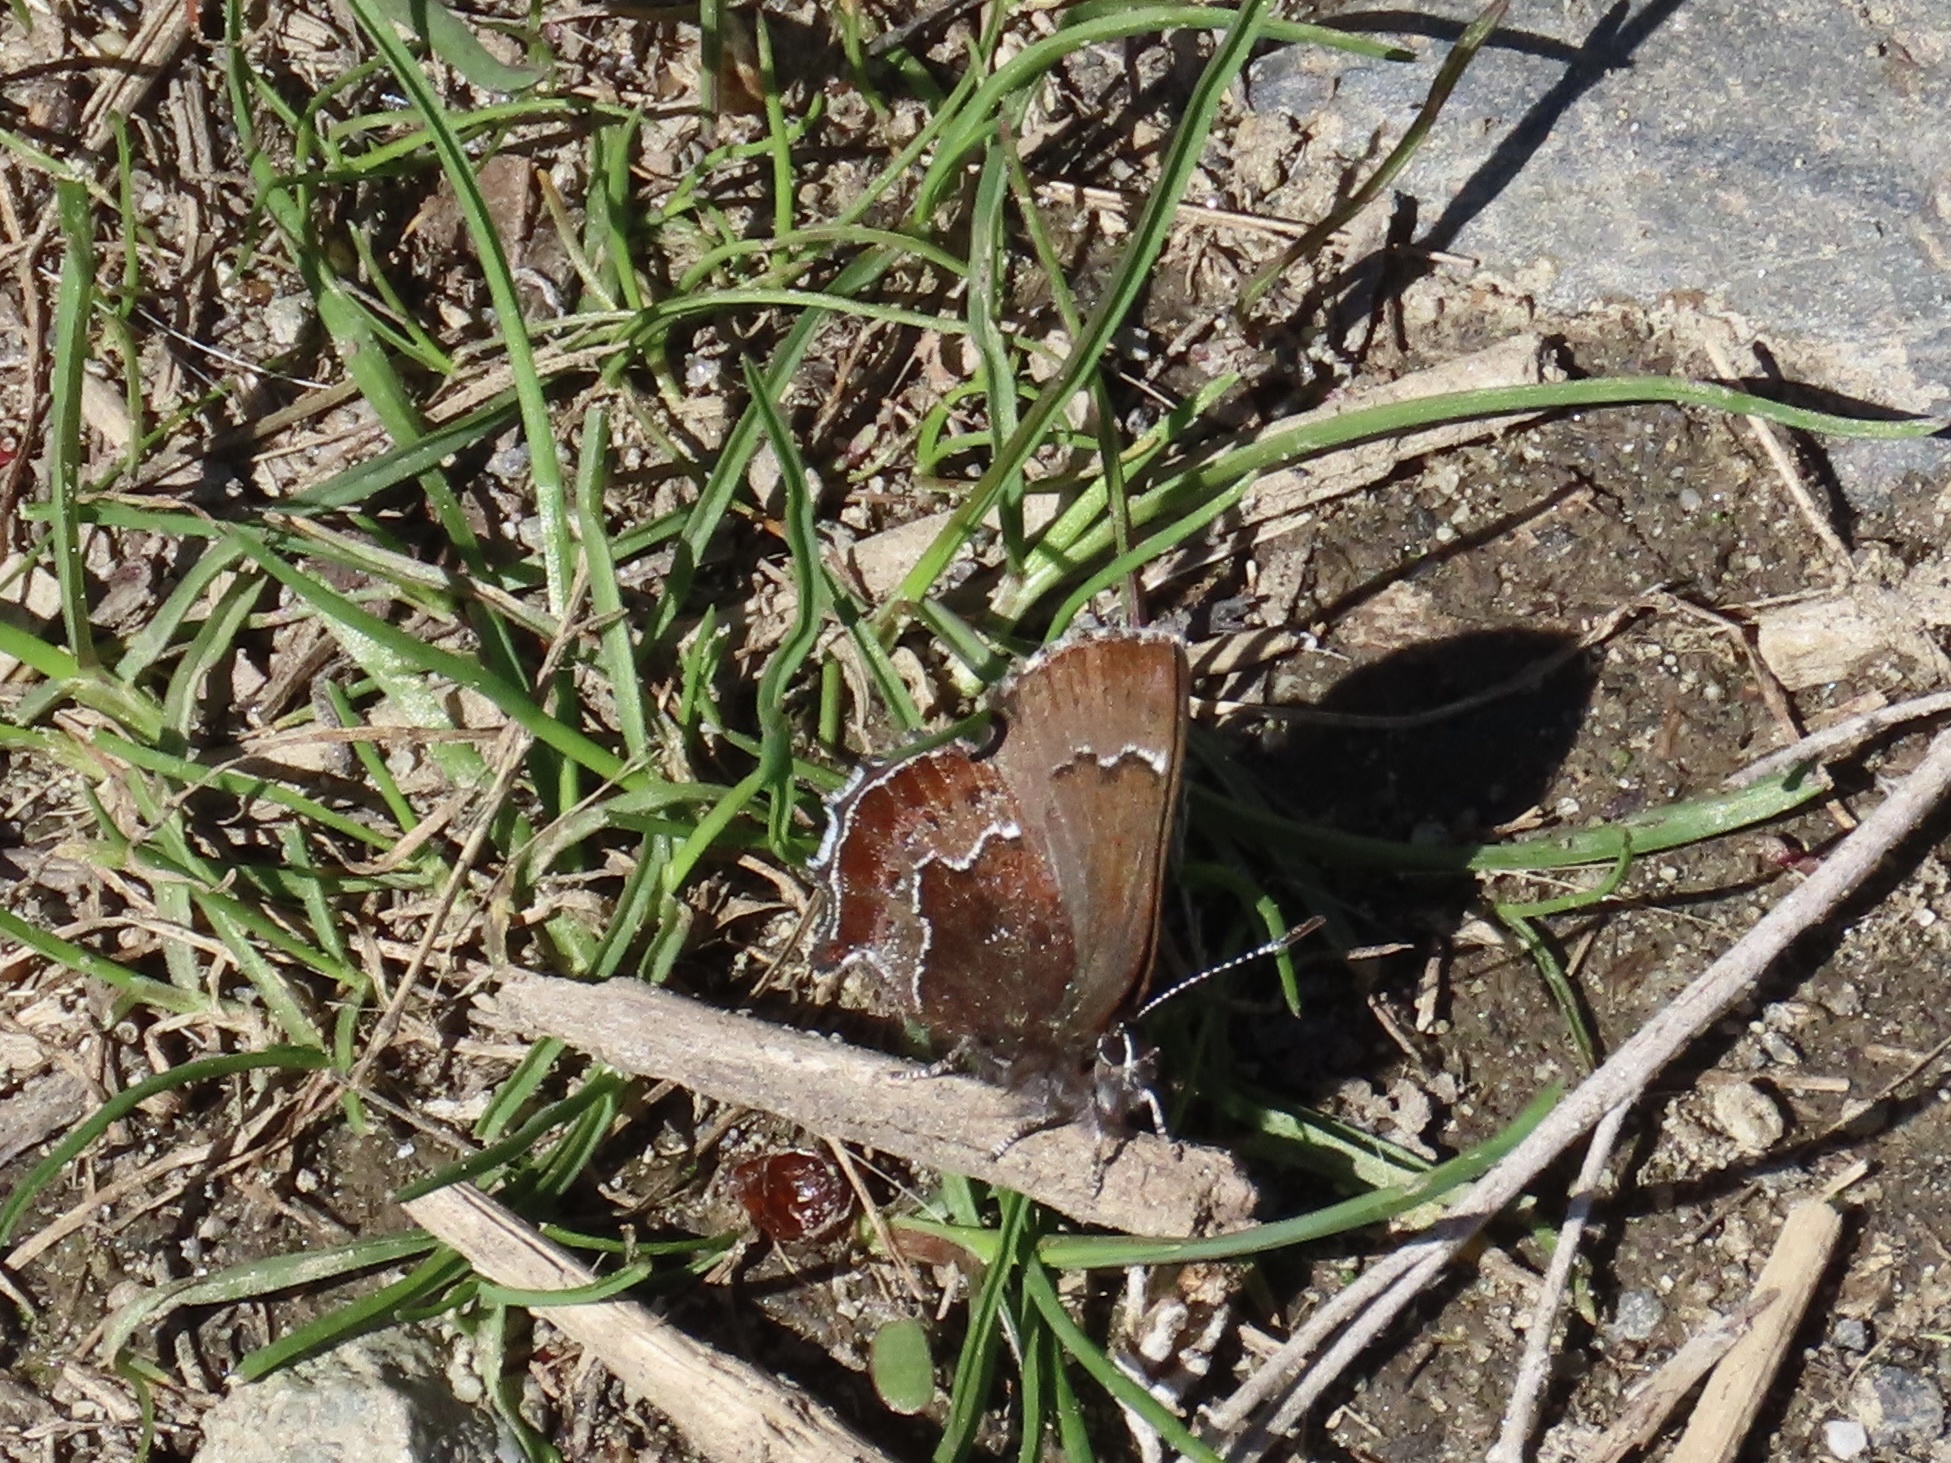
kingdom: Animalia
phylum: Arthropoda
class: Insecta
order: Lepidoptera
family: Lycaenidae
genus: Callophrys
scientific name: Callophrys mossii
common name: Moss' elfin
